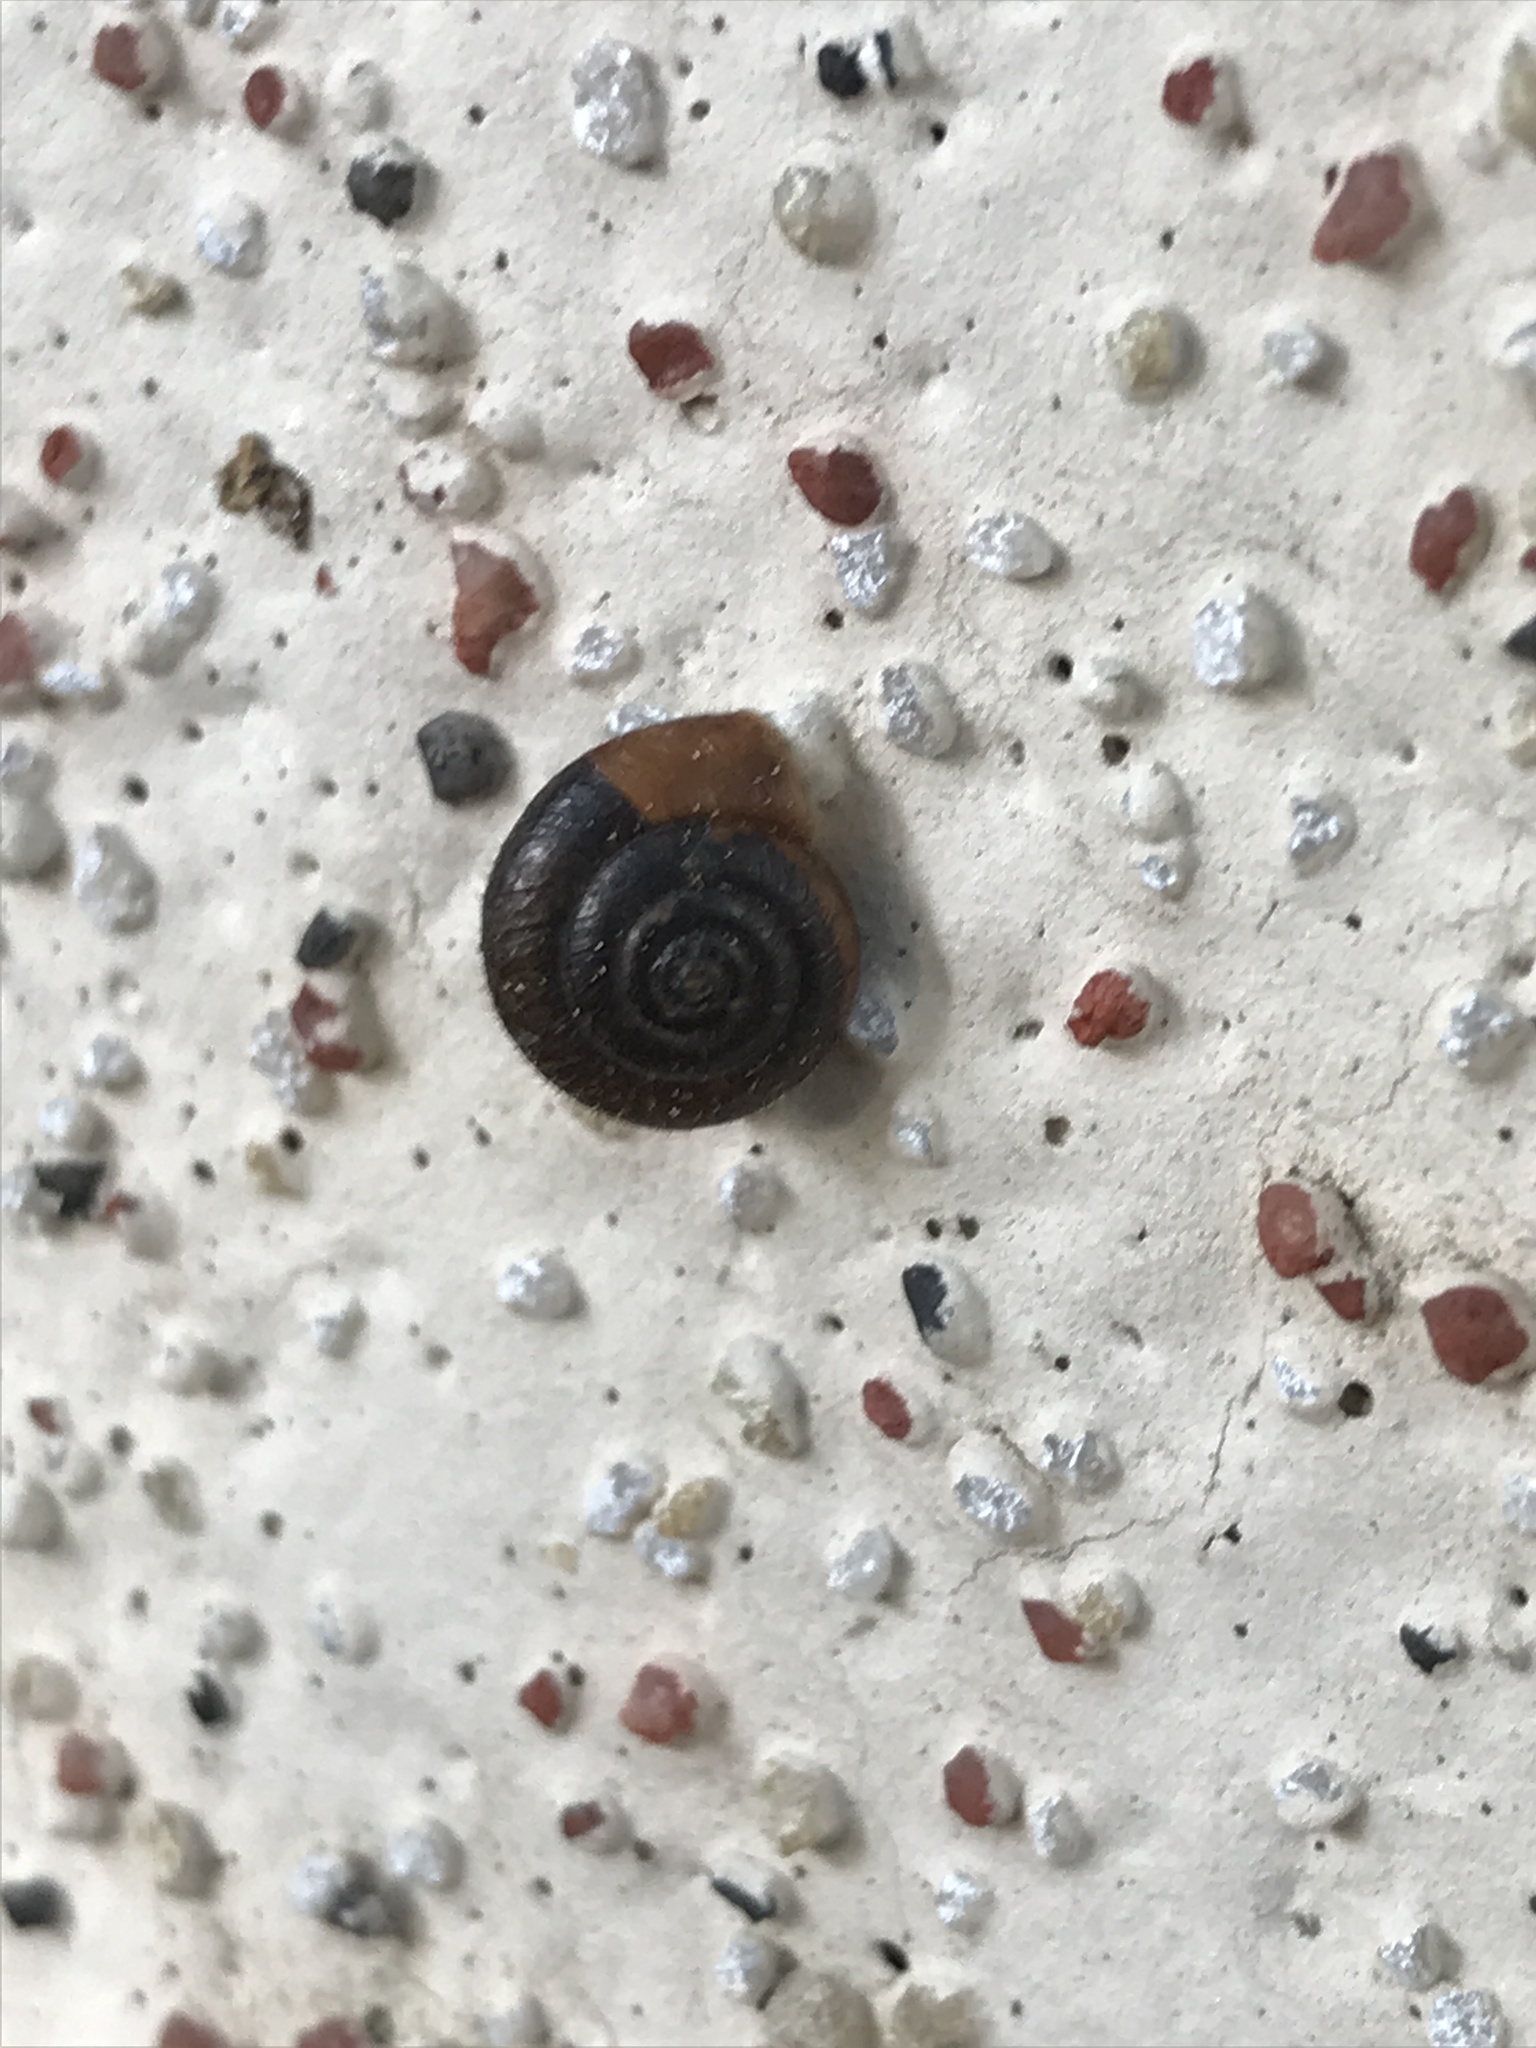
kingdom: Animalia
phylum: Mollusca
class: Gastropoda
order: Stylommatophora
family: Hygromiidae
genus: Trochulus
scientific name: Trochulus hispidus
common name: Hairy snail
